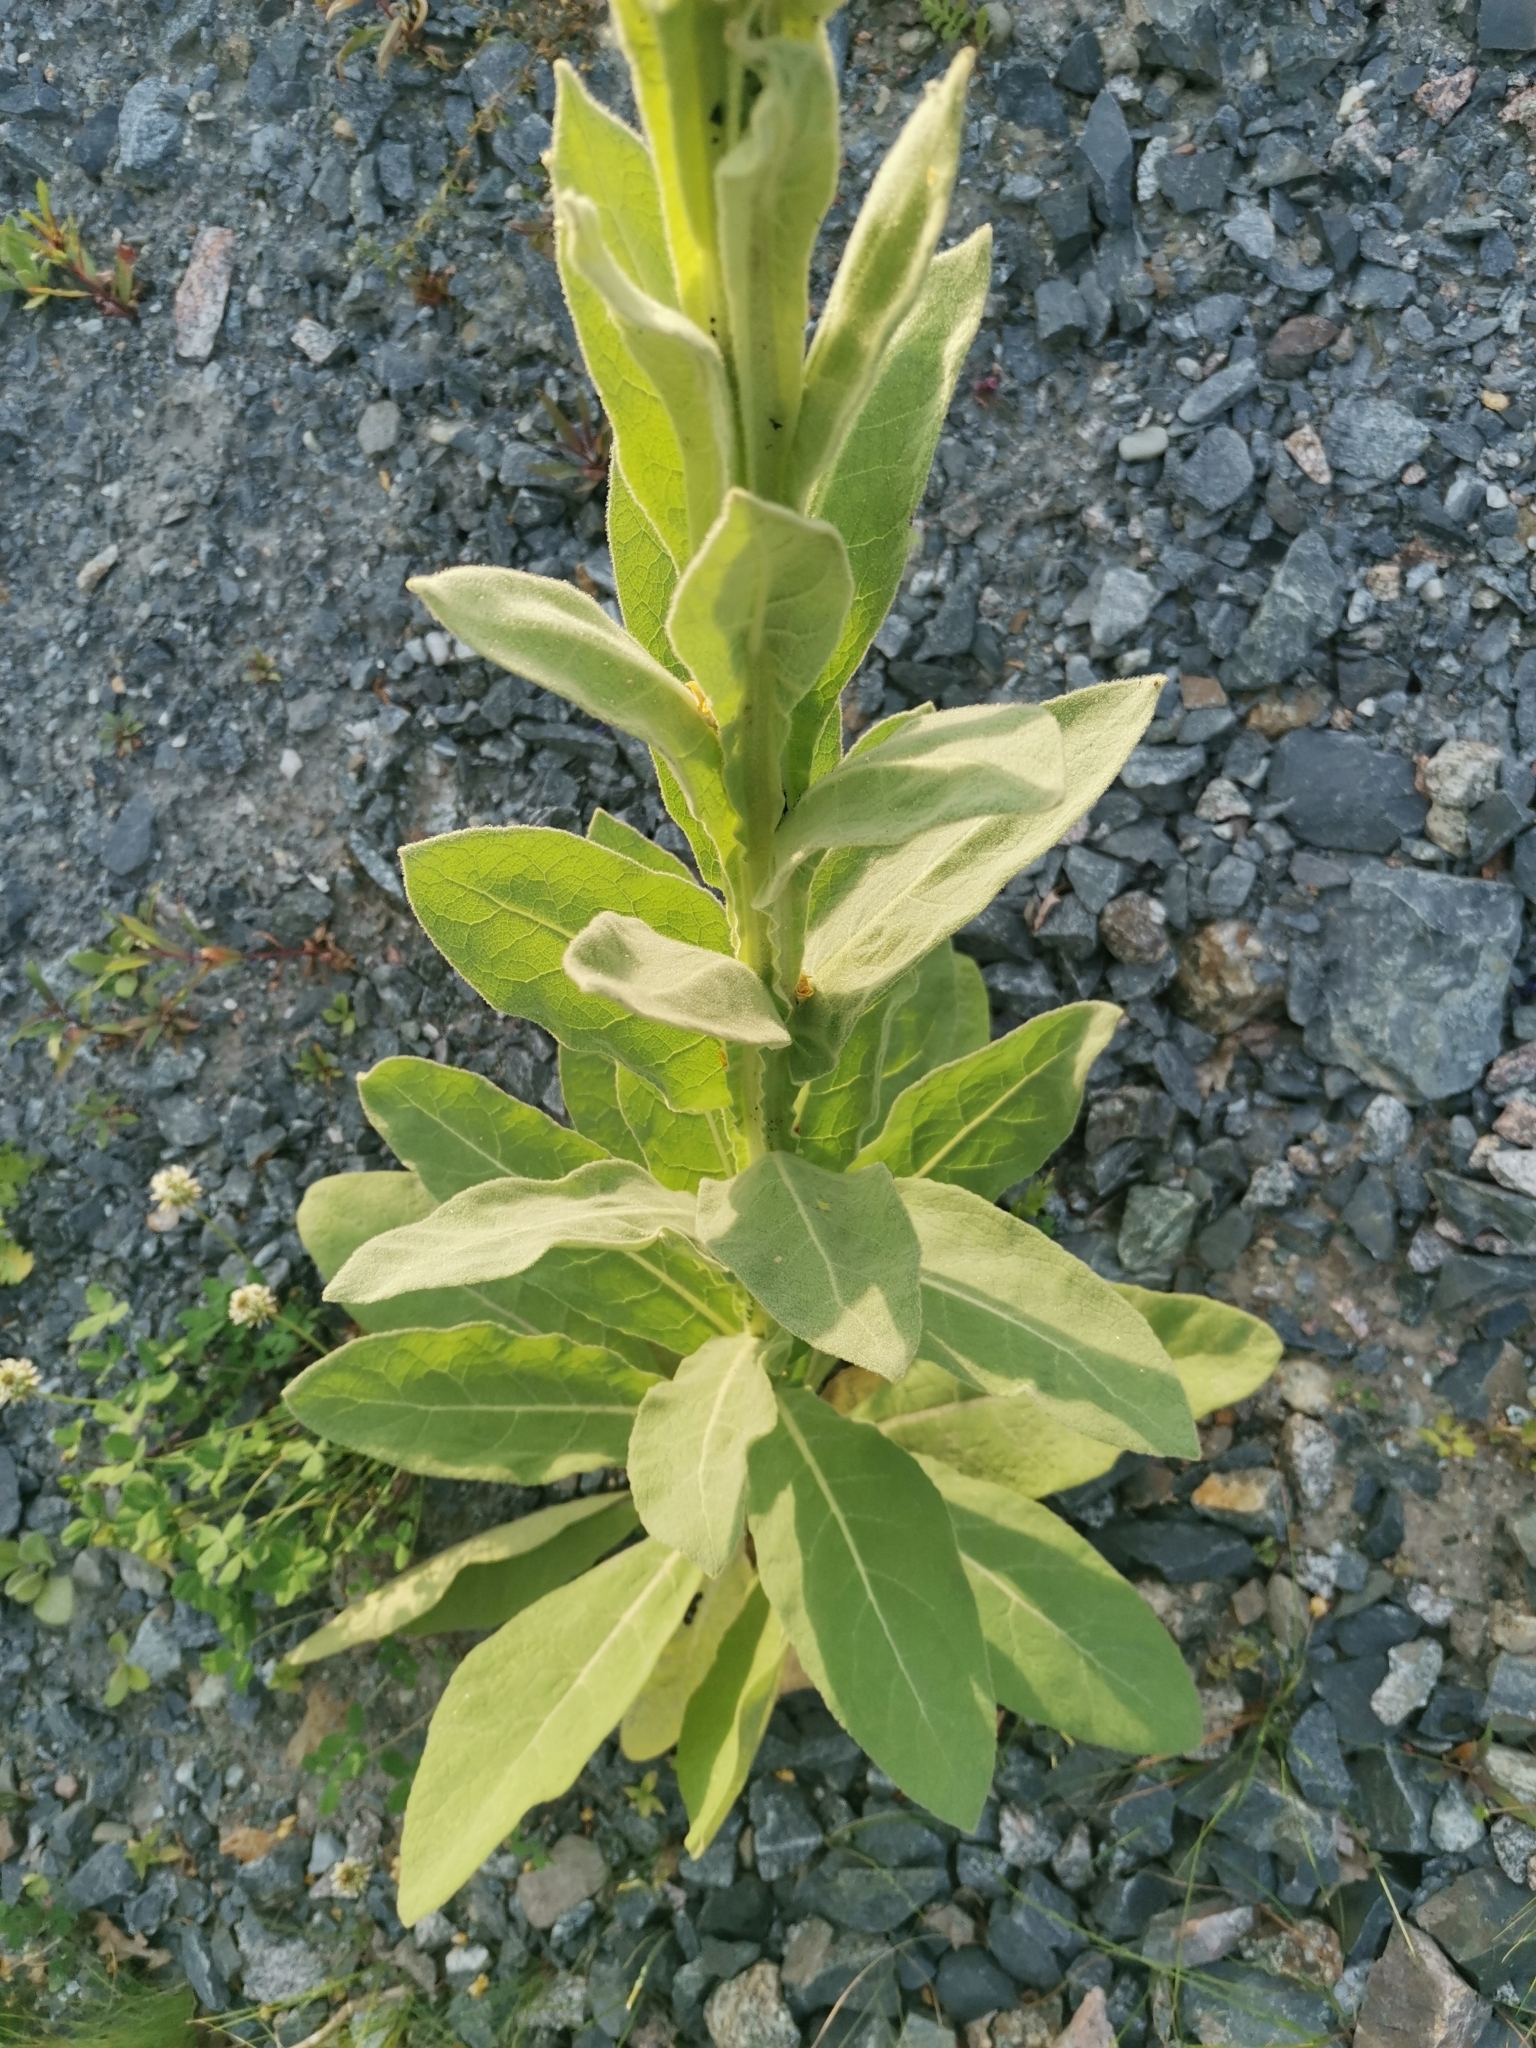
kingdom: Plantae
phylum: Tracheophyta
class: Magnoliopsida
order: Lamiales
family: Scrophulariaceae
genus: Verbascum
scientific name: Verbascum thapsus
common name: Common mullein
